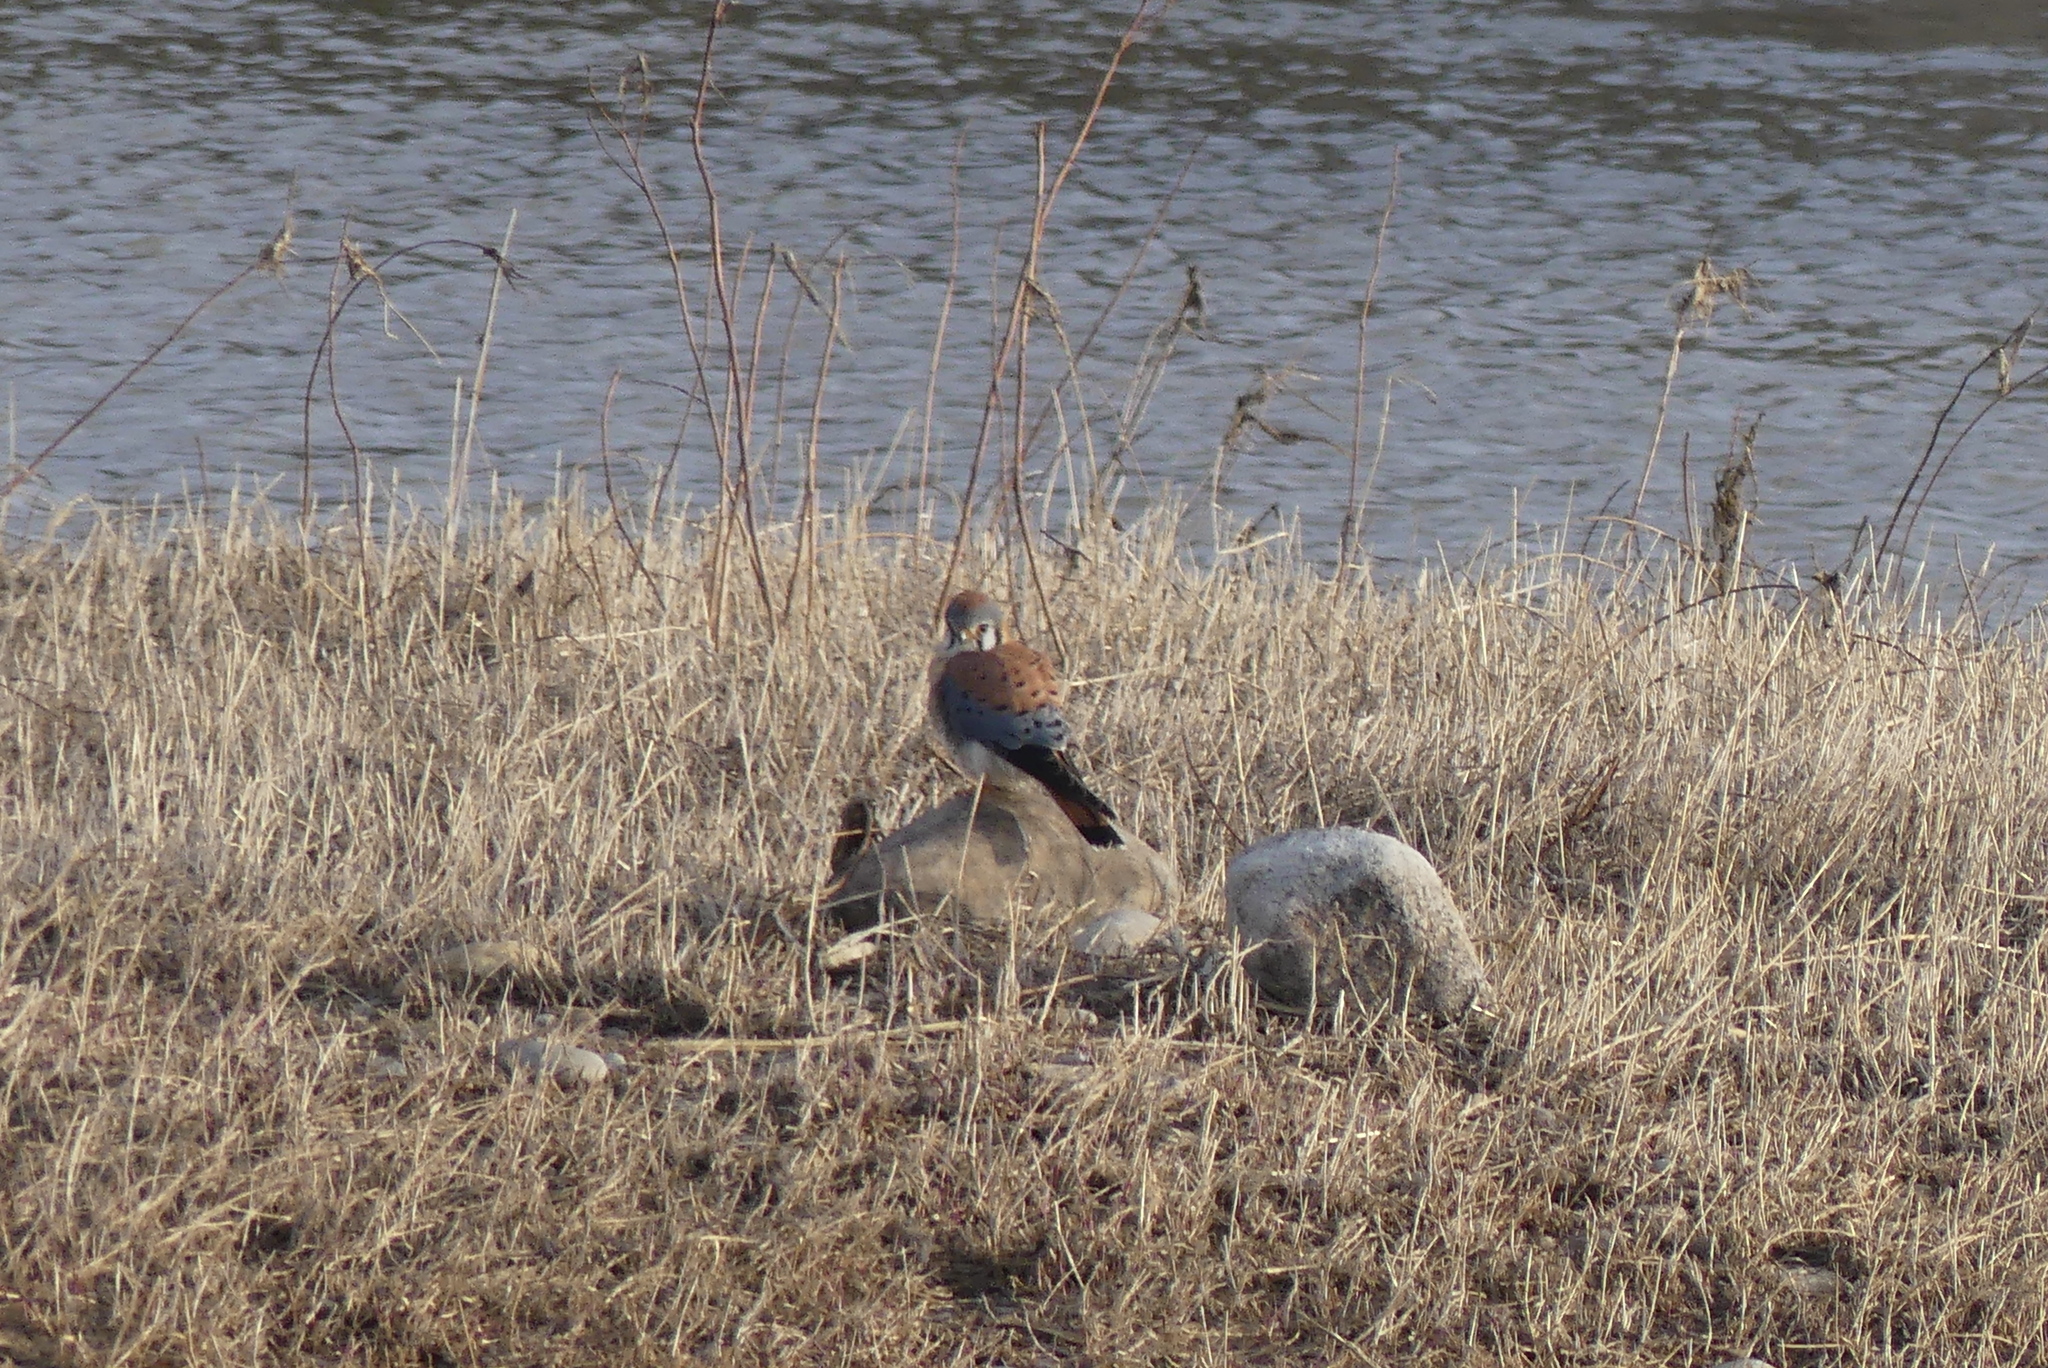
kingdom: Animalia
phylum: Chordata
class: Aves
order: Falconiformes
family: Falconidae
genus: Falco
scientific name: Falco sparverius
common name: American kestrel
